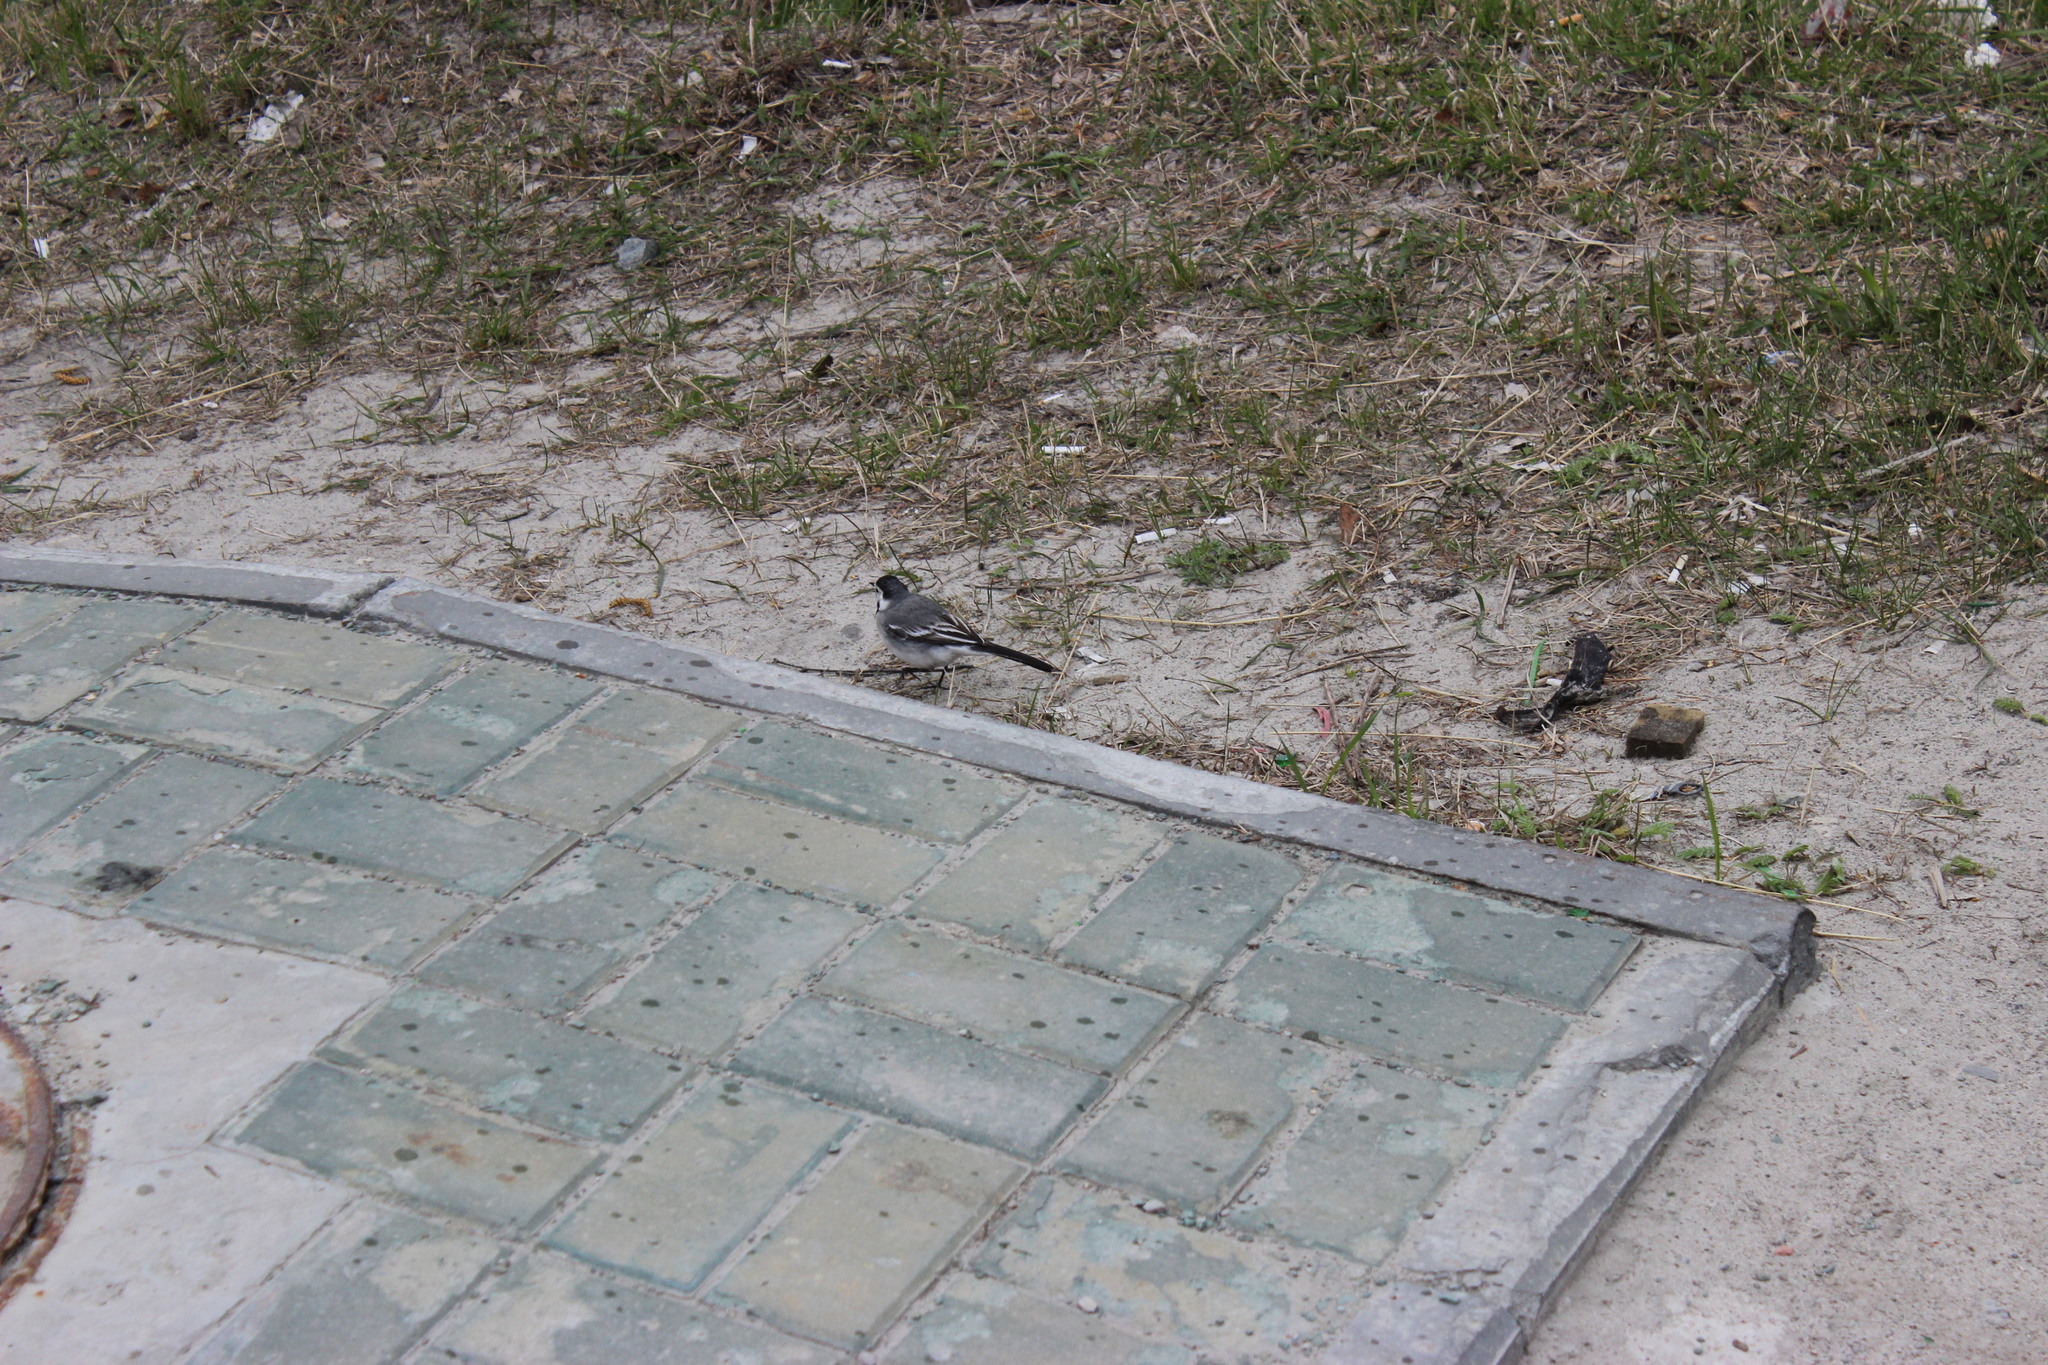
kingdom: Animalia
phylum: Chordata
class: Aves
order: Passeriformes
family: Motacillidae
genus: Motacilla
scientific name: Motacilla alba
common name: White wagtail
